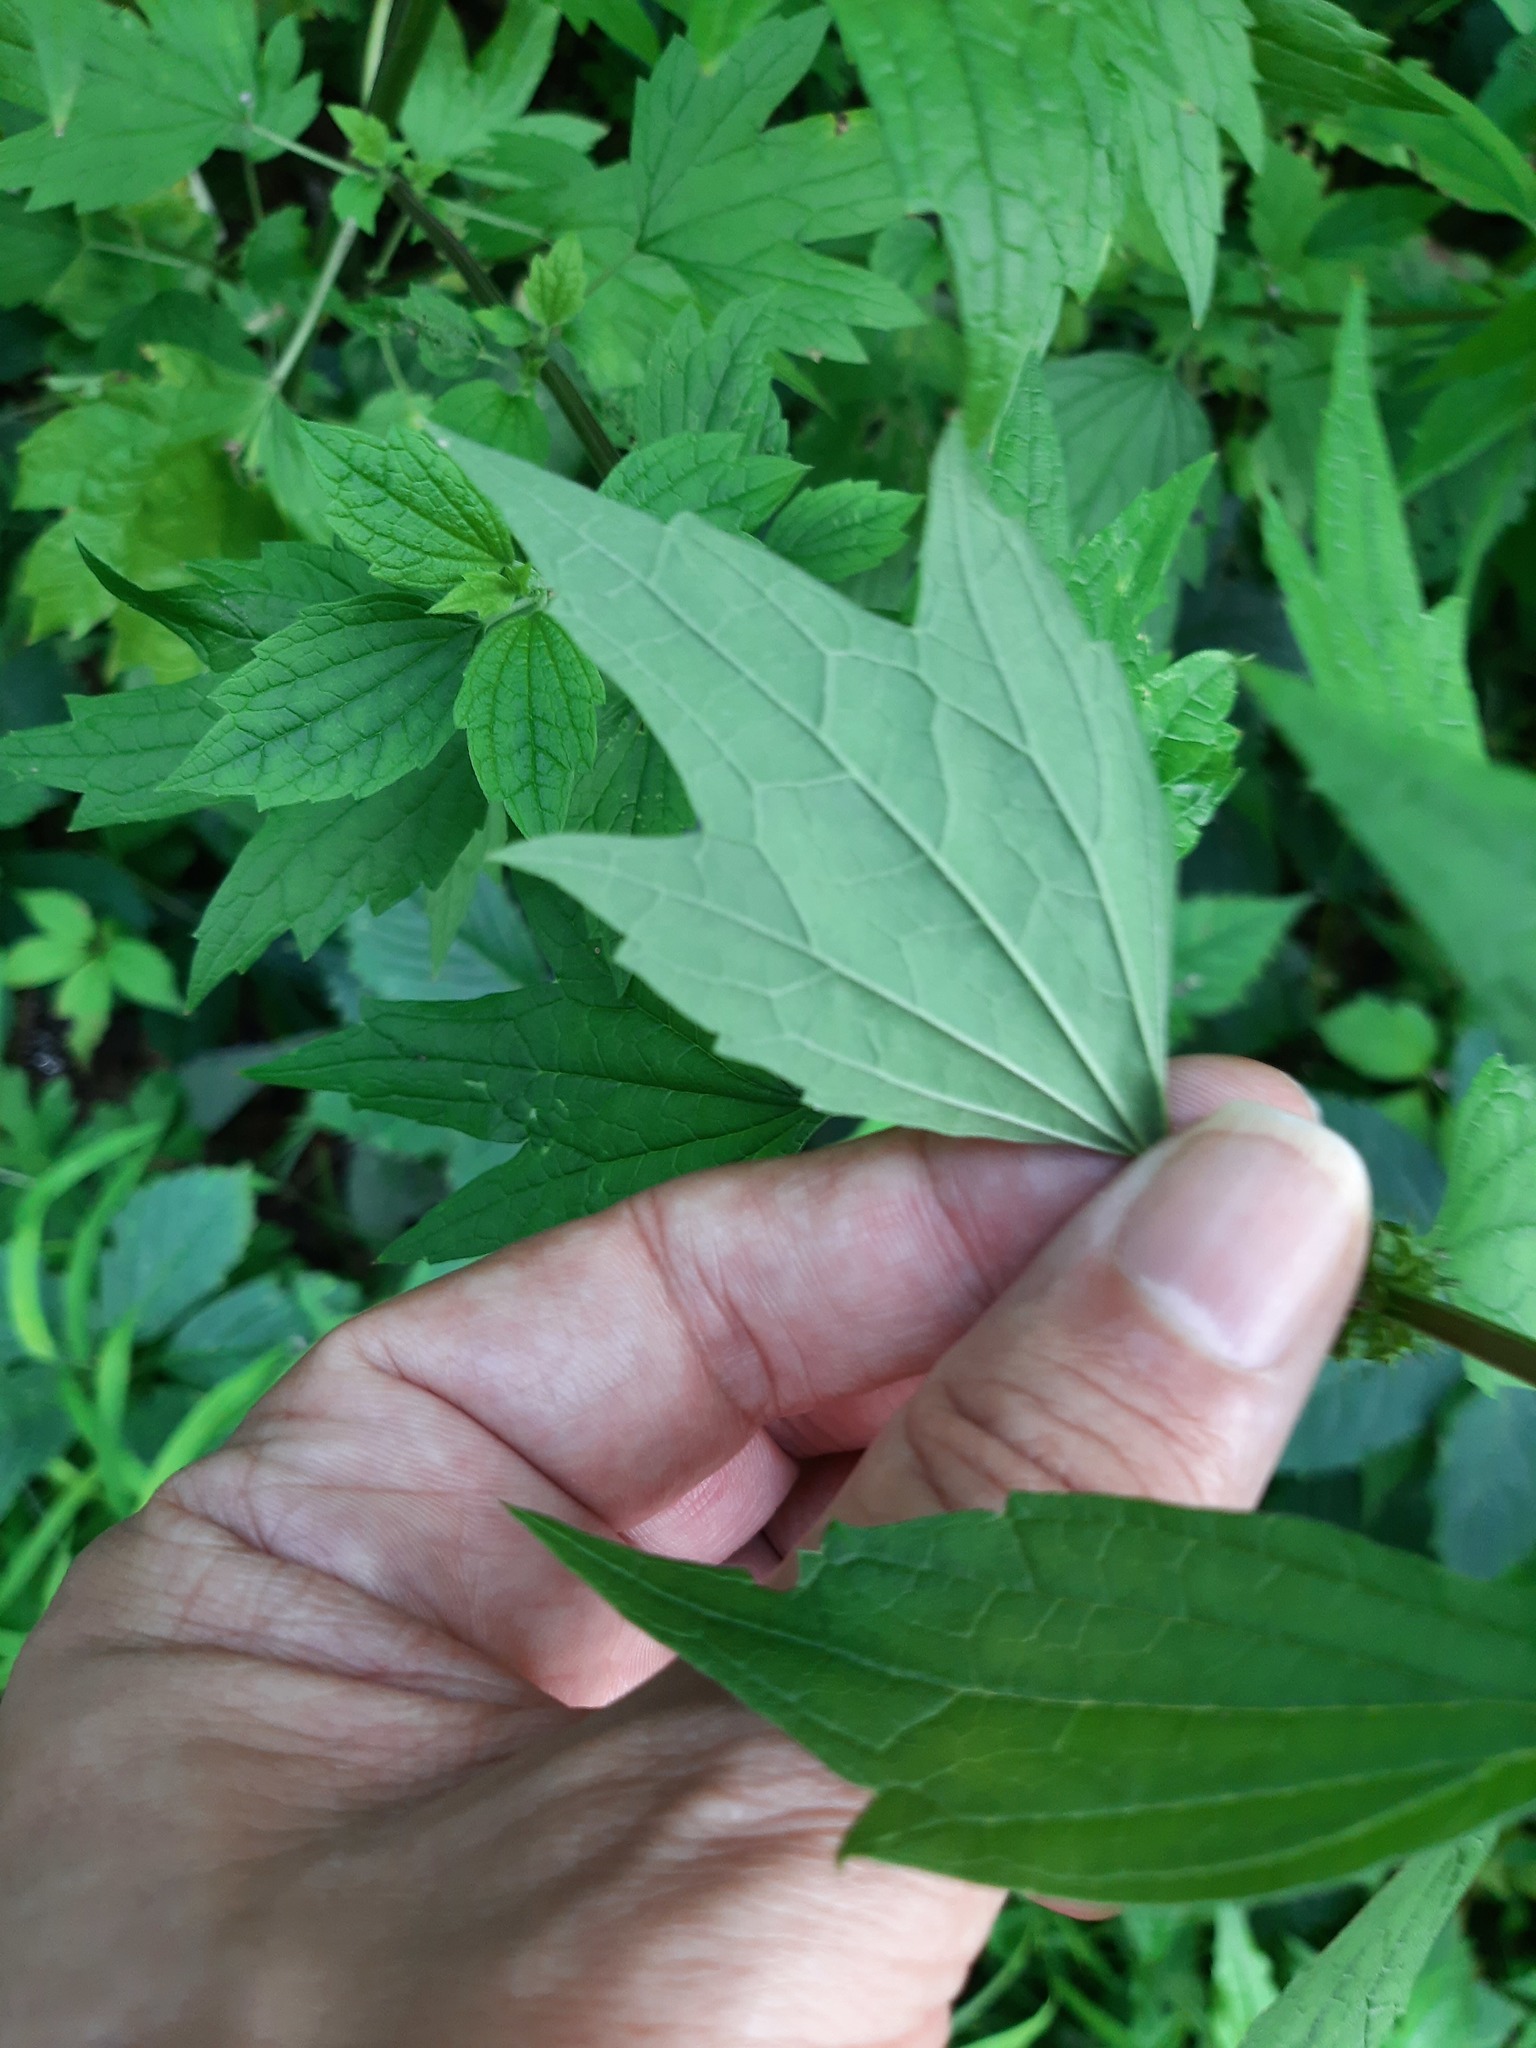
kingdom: Plantae
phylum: Tracheophyta
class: Magnoliopsida
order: Lamiales
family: Lamiaceae
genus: Leonurus
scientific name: Leonurus cardiaca
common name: Motherwort
